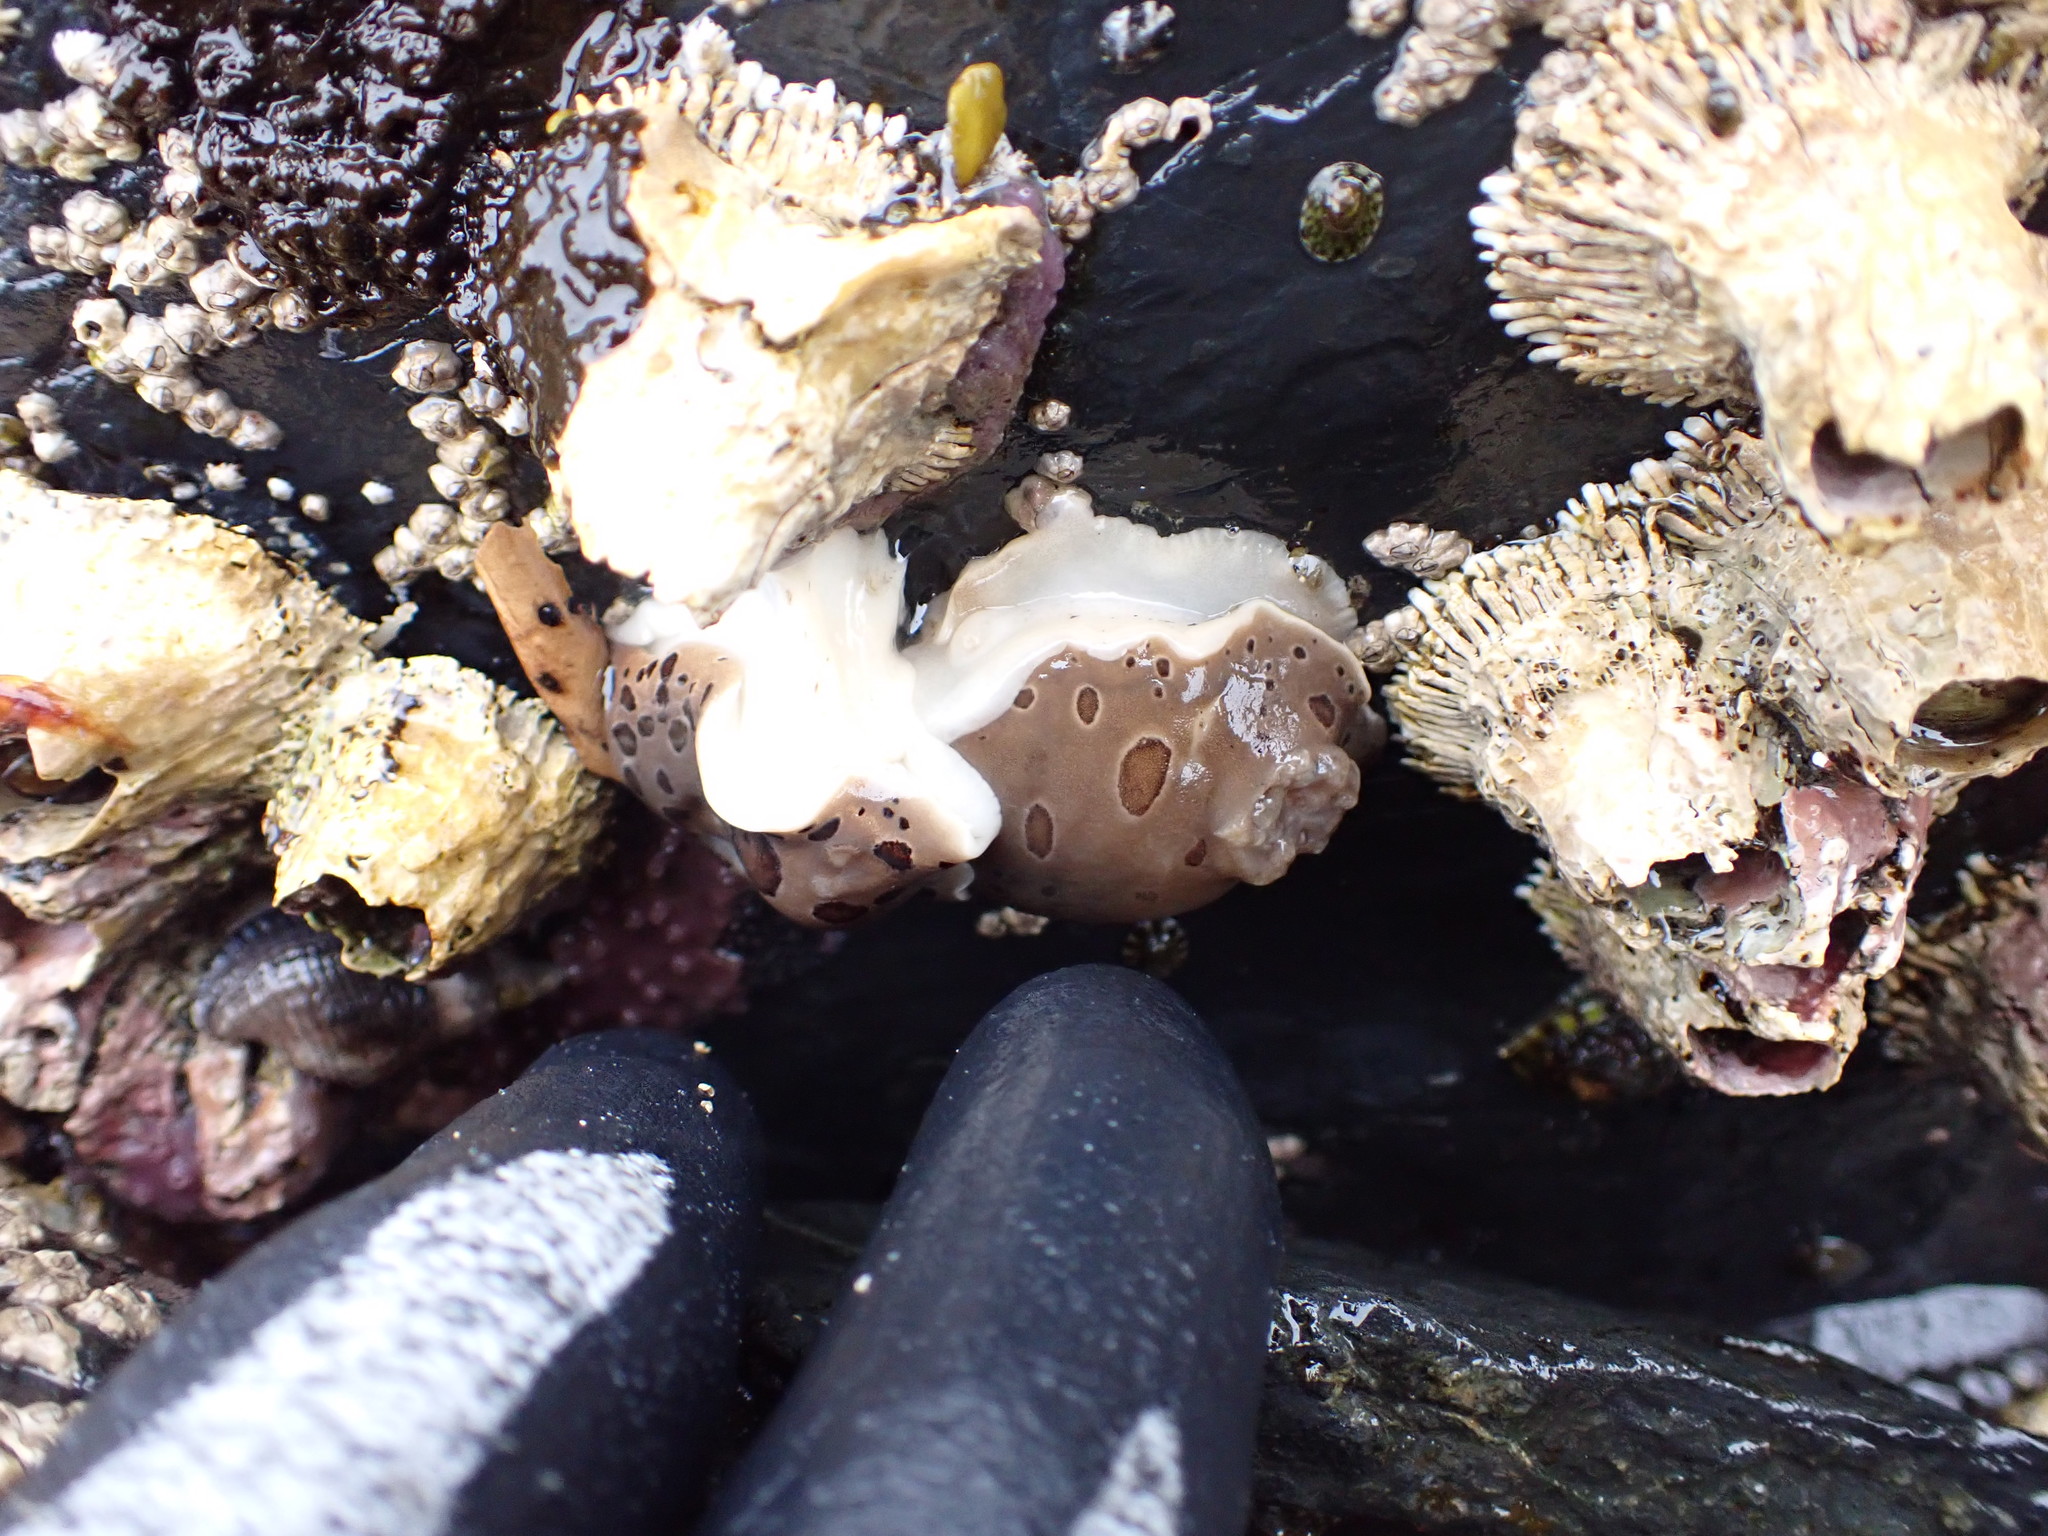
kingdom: Animalia
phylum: Mollusca
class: Gastropoda
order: Nudibranchia
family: Discodorididae
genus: Diaulula
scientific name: Diaulula odonoghuei
